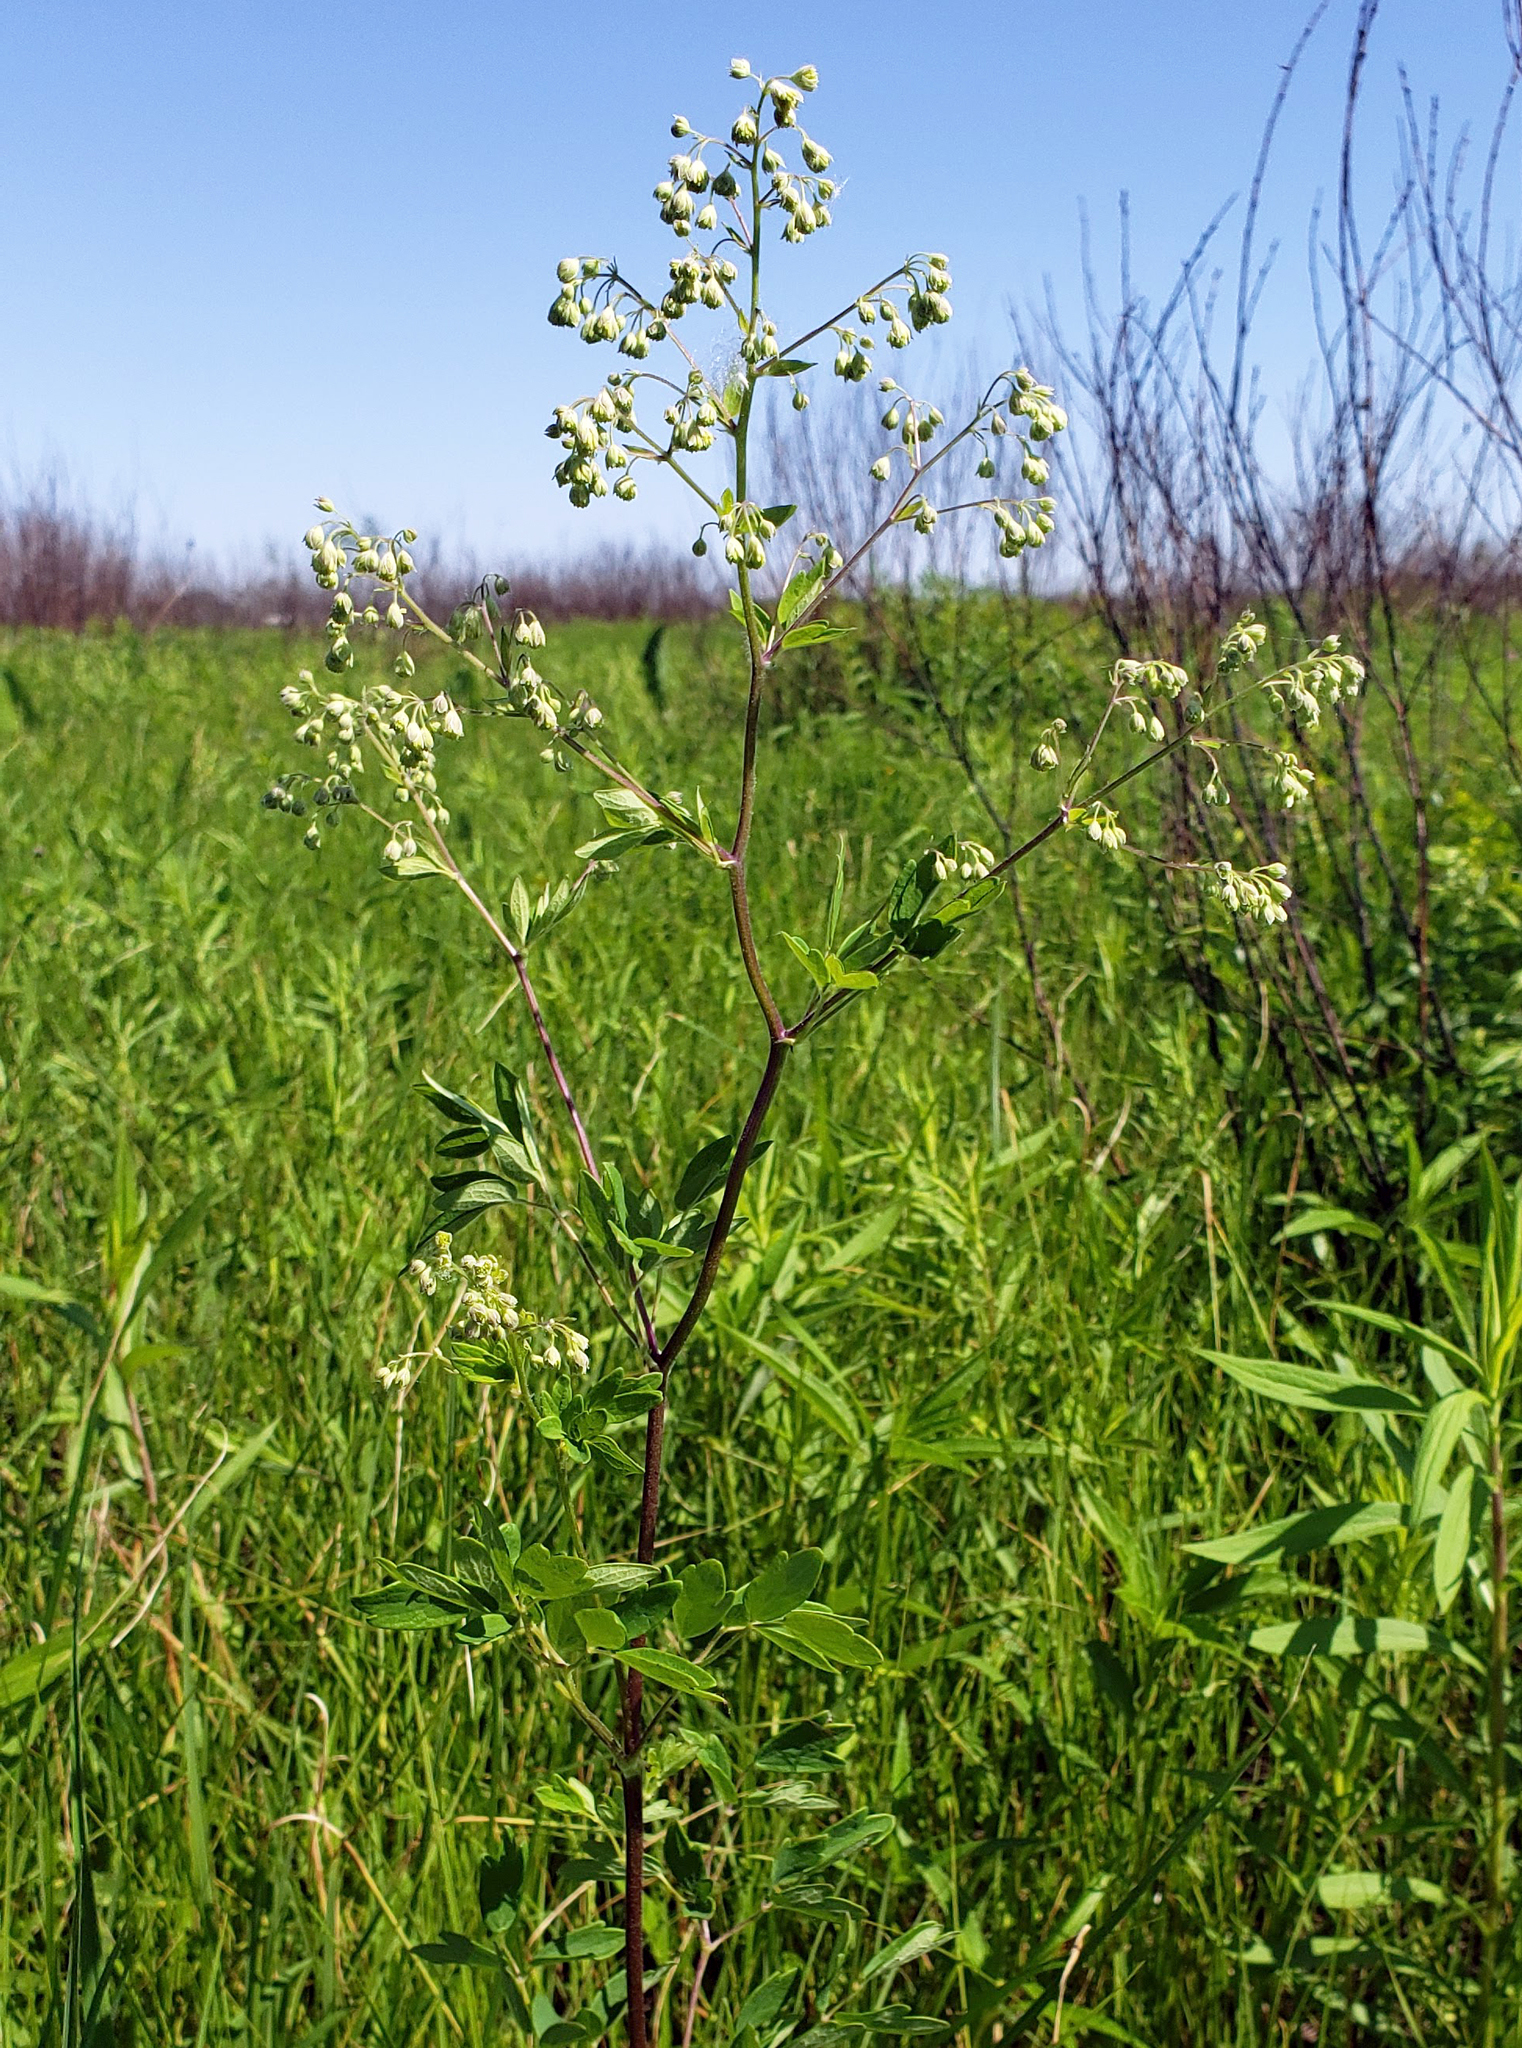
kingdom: Plantae
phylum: Tracheophyta
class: Magnoliopsida
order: Ranunculales
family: Ranunculaceae
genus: Thalictrum
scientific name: Thalictrum dasycarpum
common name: Purple meadow-rue
